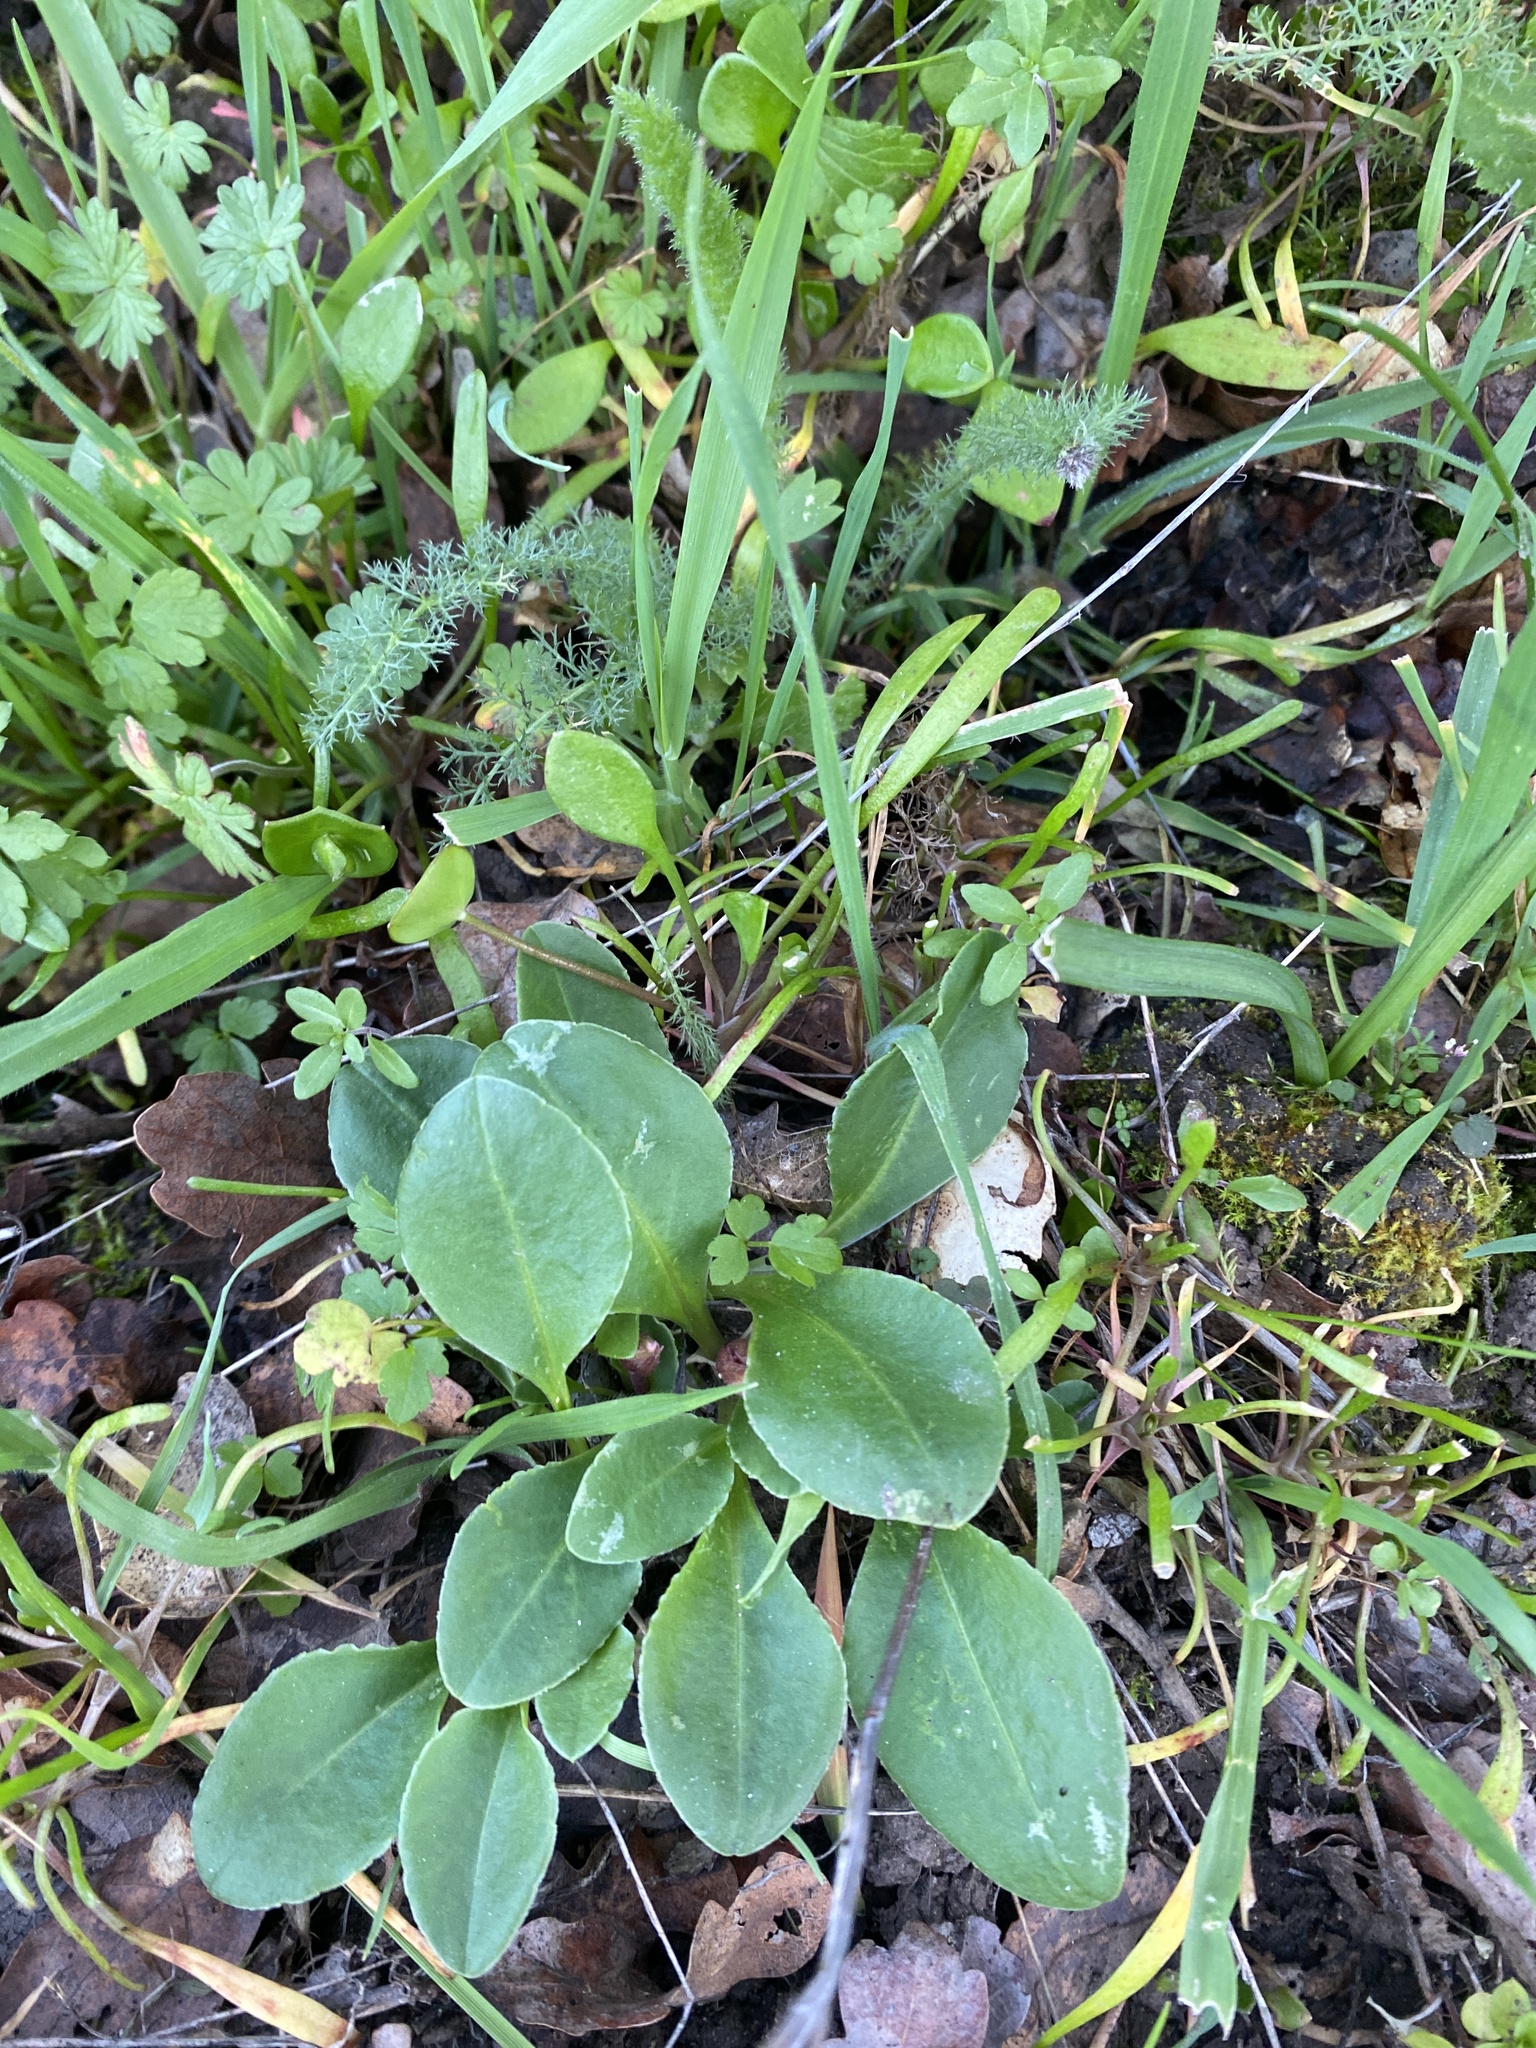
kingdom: Plantae
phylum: Tracheophyta
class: Magnoliopsida
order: Ericales
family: Primulaceae
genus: Dodecatheon
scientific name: Dodecatheon hendersonii
